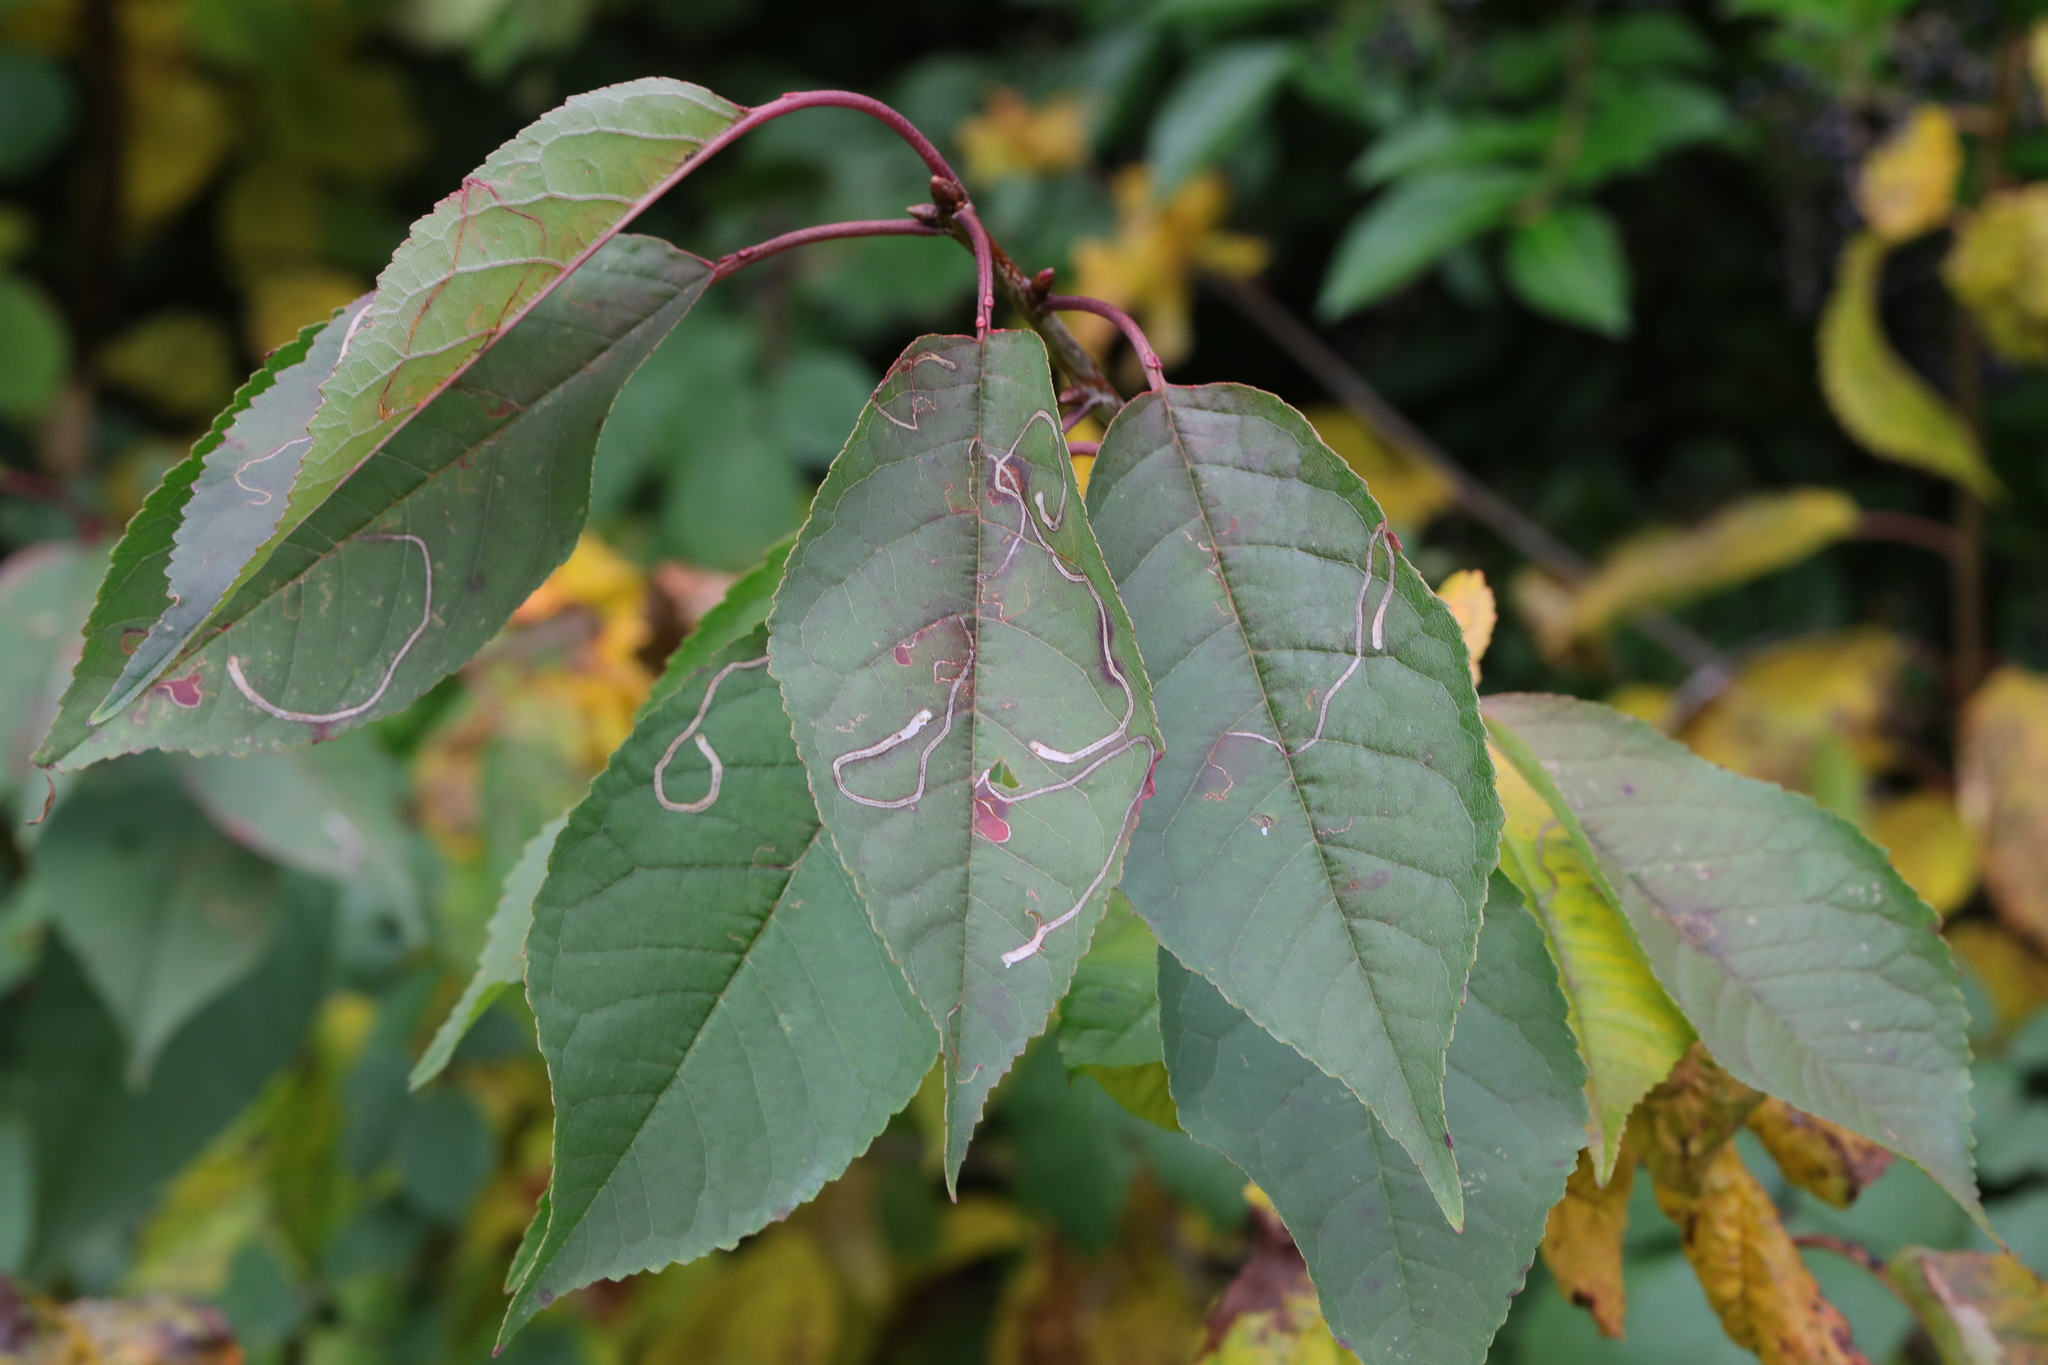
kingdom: Plantae
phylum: Tracheophyta
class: Magnoliopsida
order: Rosales
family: Rosaceae
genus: Prunus
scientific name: Prunus avium
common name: Sweet cherry
